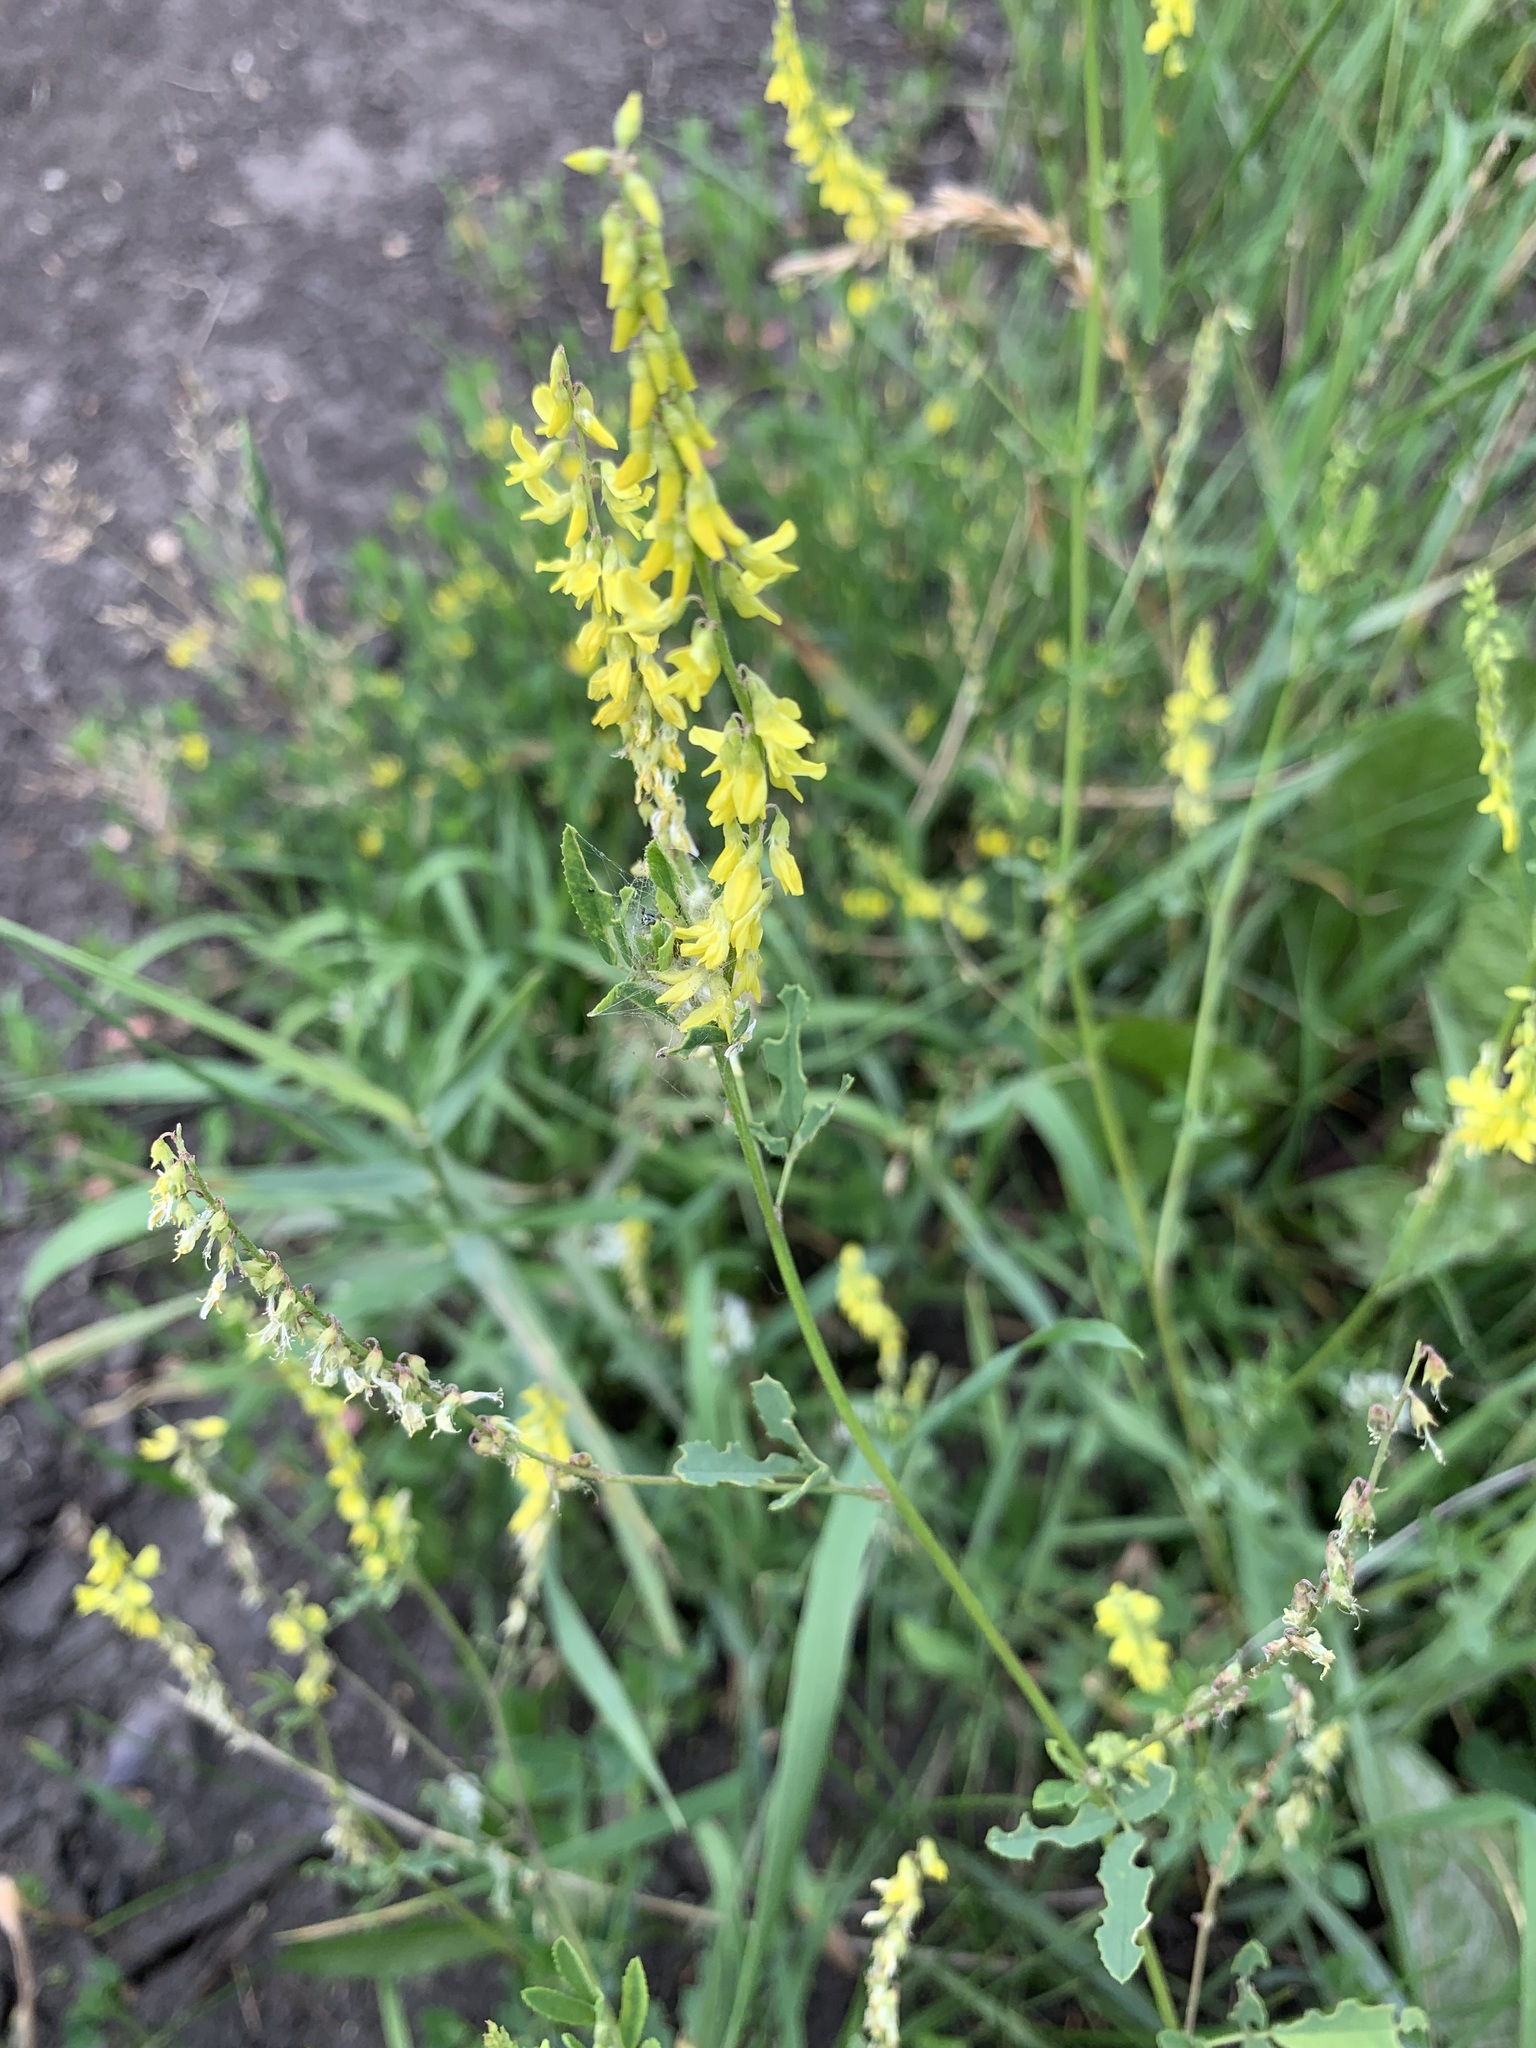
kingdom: Plantae
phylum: Tracheophyta
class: Magnoliopsida
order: Fabales
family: Fabaceae
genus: Melilotus
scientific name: Melilotus officinalis
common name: Sweetclover
